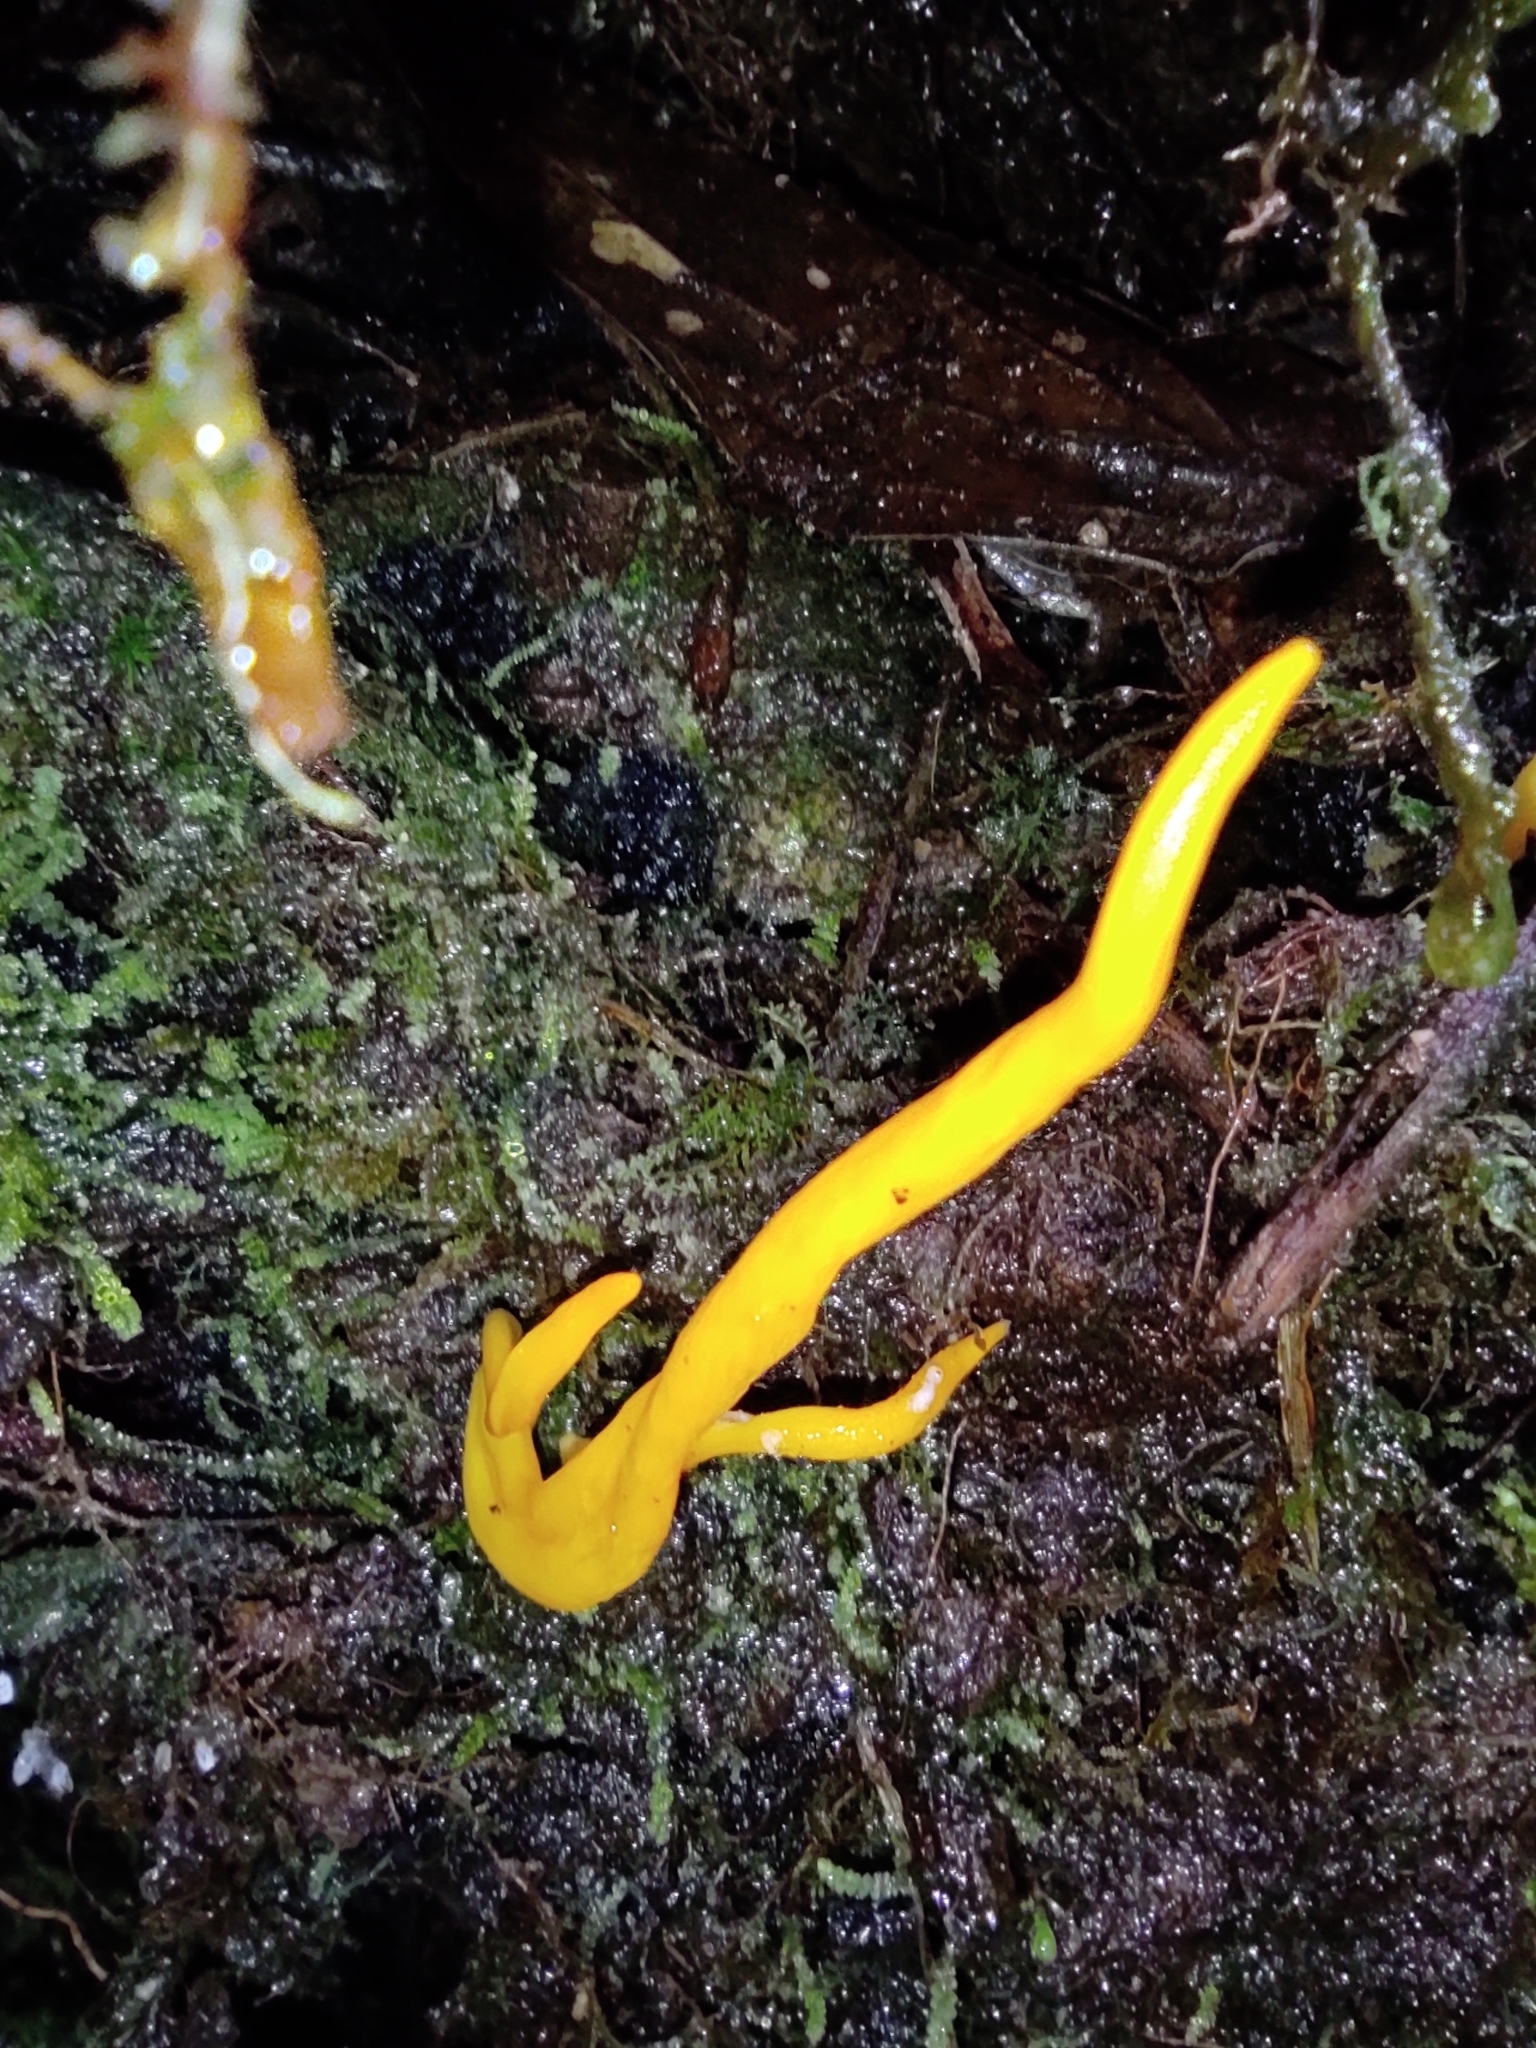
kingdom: Fungi
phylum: Basidiomycota
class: Agaricomycetes
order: Agaricales
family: Clavariaceae
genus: Clavulinopsis
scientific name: Clavulinopsis fusiformis
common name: Golden spindles
